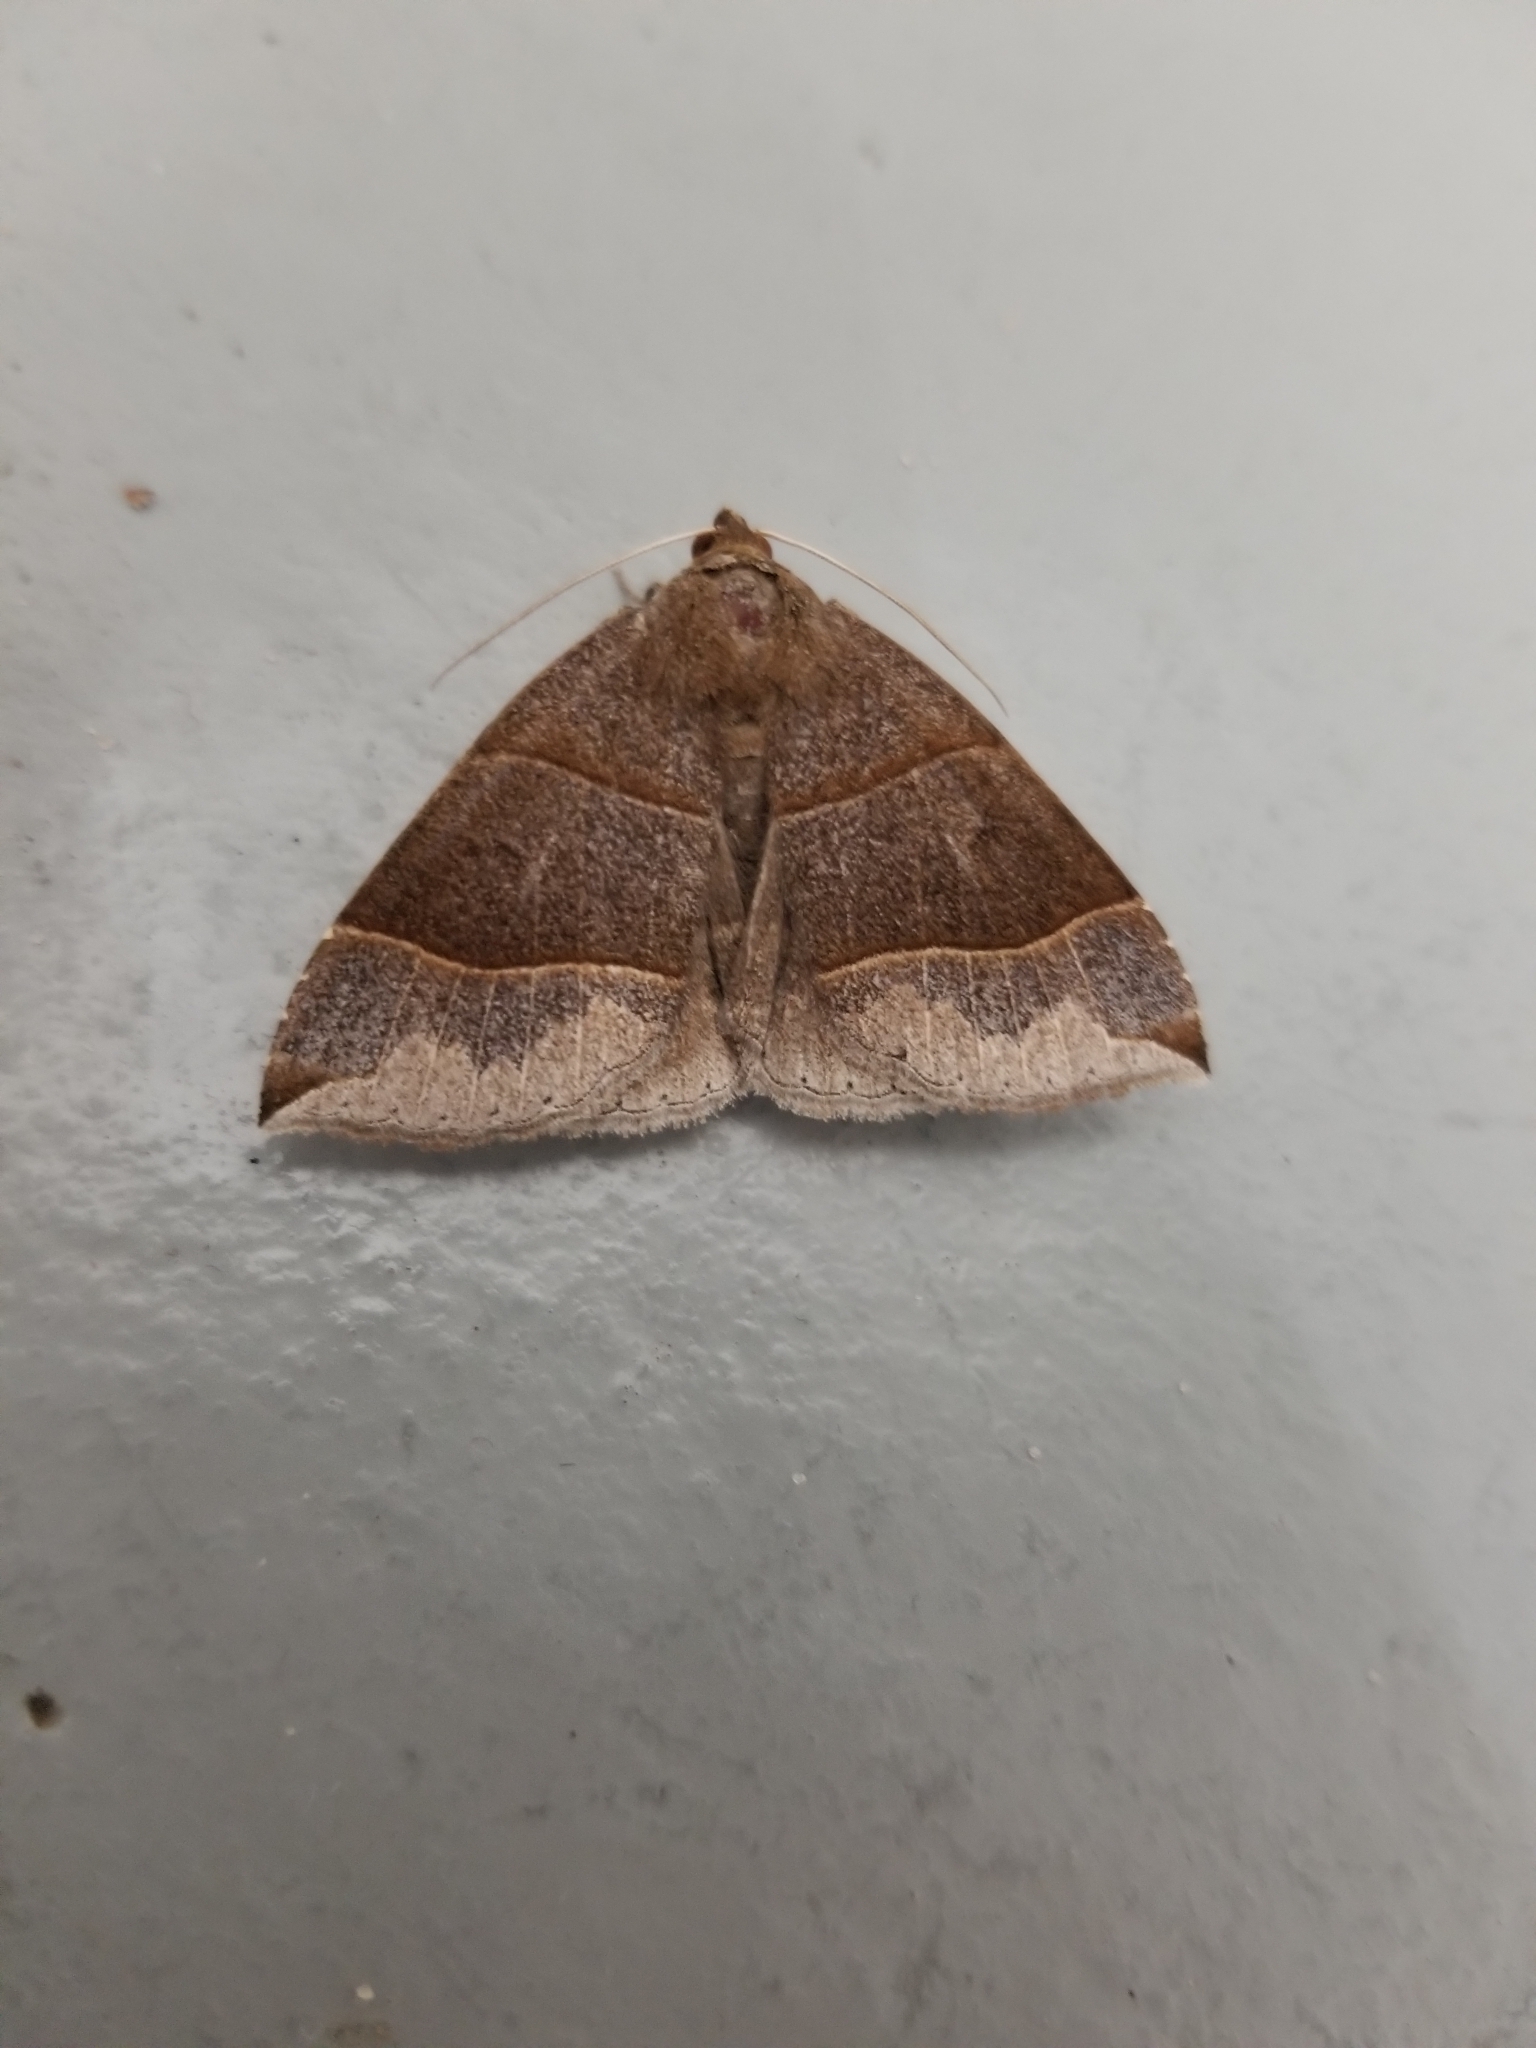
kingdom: Animalia
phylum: Arthropoda
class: Insecta
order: Lepidoptera
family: Erebidae
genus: Parallelia
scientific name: Parallelia bistriaris
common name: Maple looper moth
